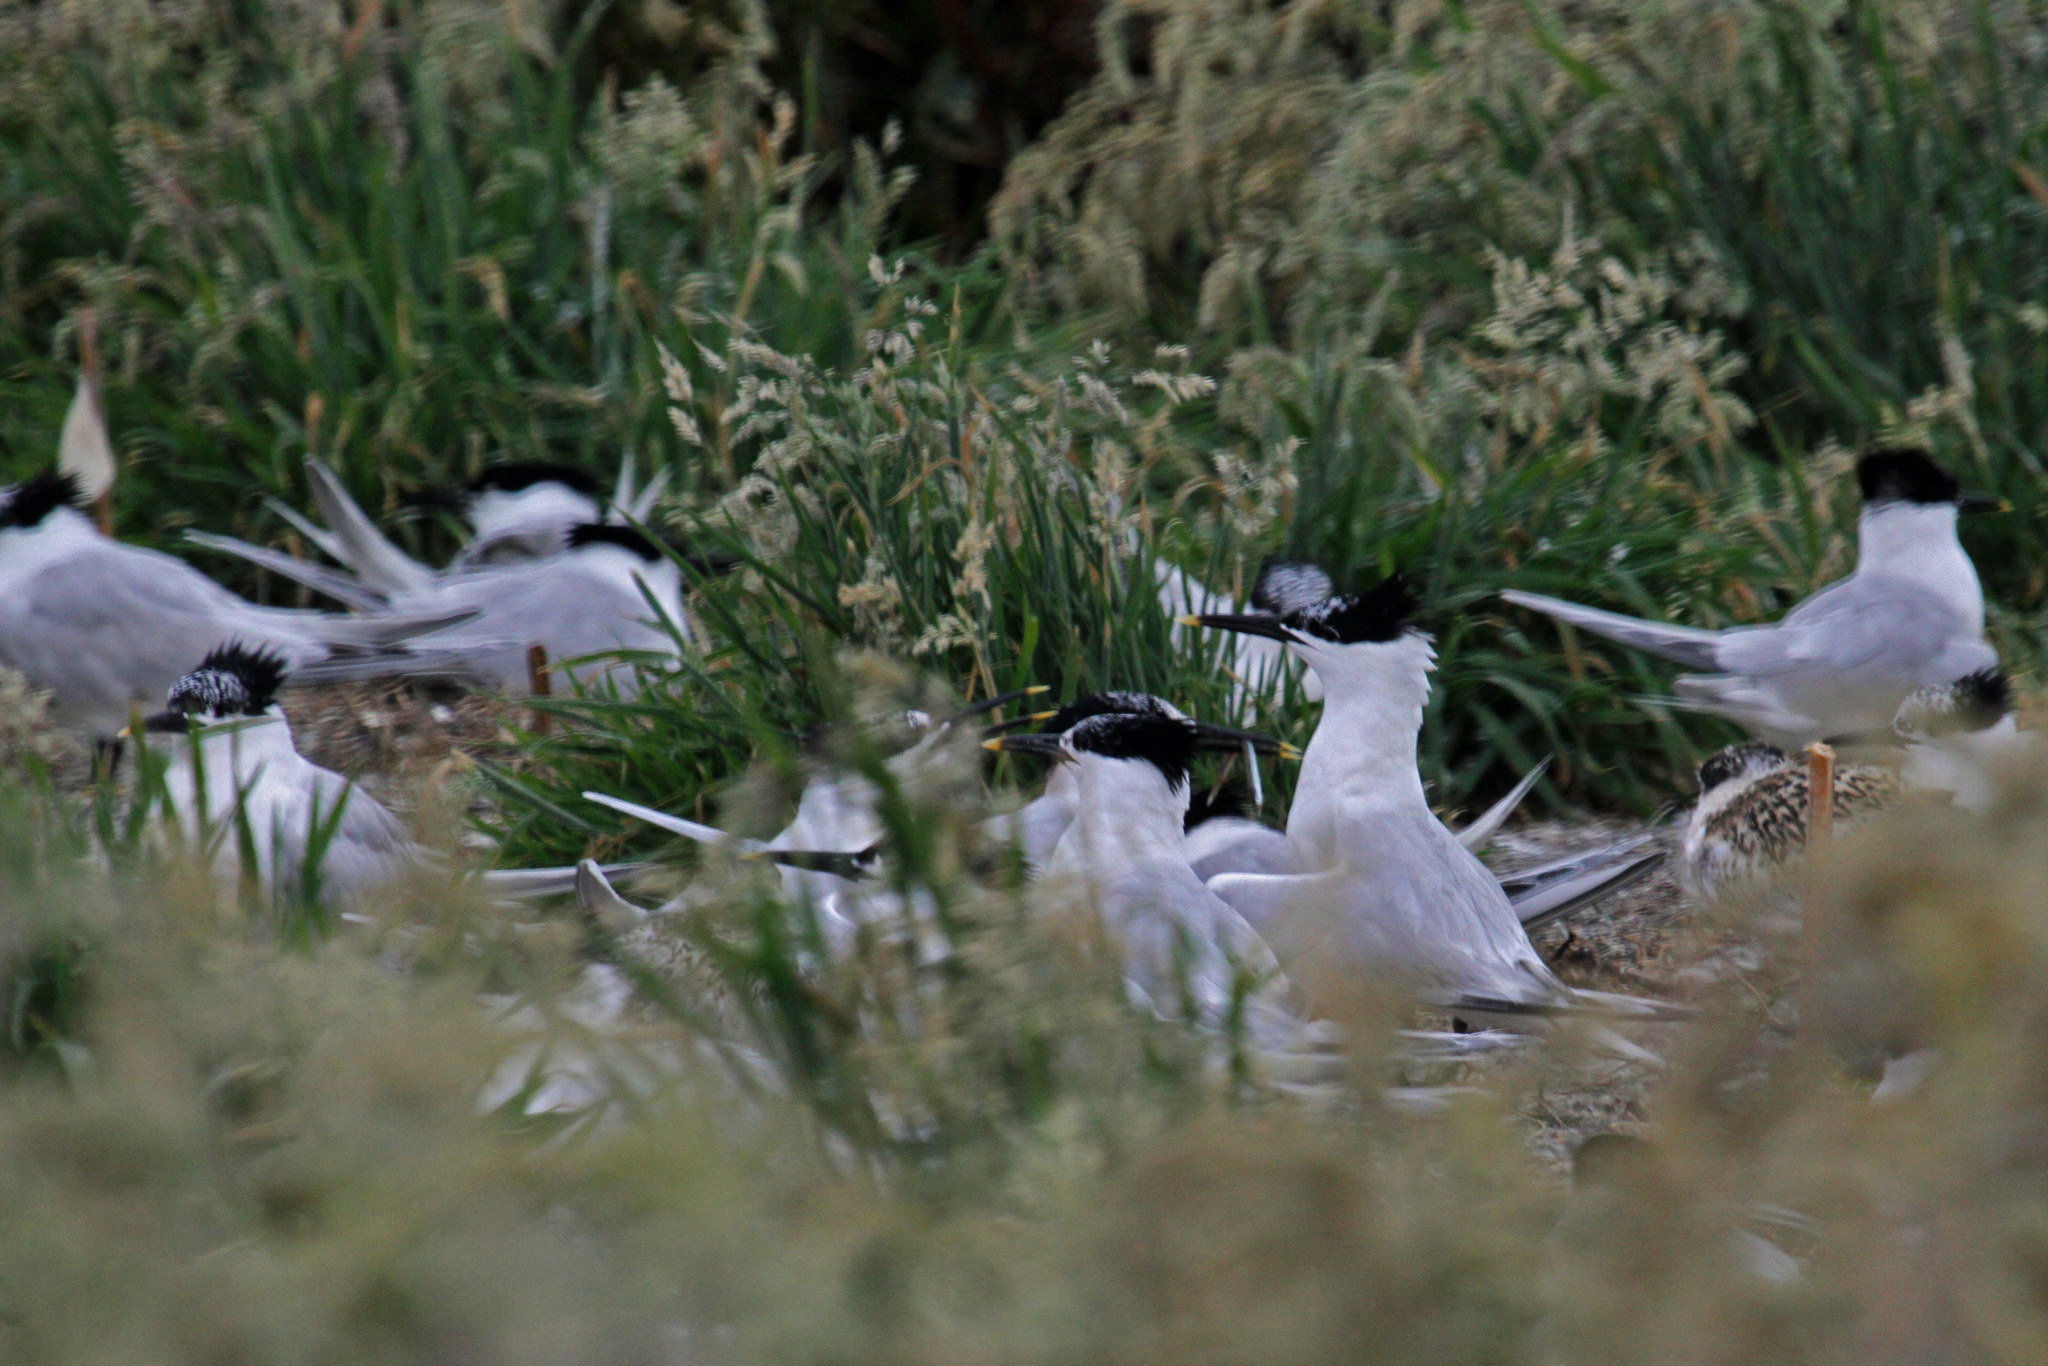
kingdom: Animalia
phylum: Chordata
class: Aves
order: Charadriiformes
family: Laridae
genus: Thalasseus
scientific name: Thalasseus sandvicensis
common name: Sandwich tern
